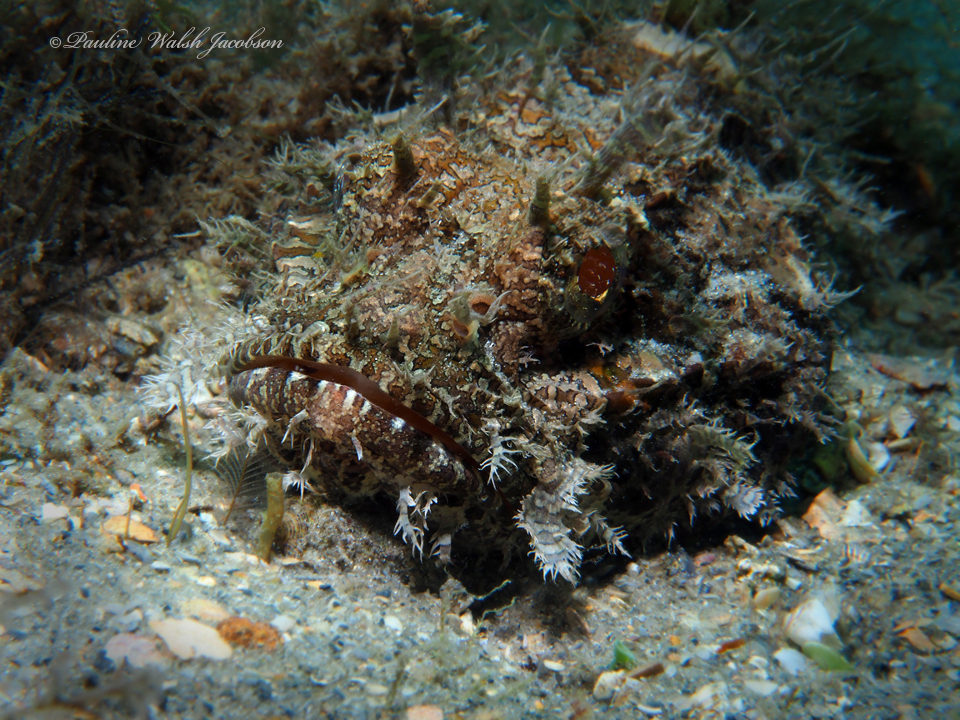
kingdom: Animalia
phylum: Chordata
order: Scorpaeniformes
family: Scorpaenidae
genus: Scorpaena
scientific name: Scorpaena plumieri
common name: Spotted scorpionfish
